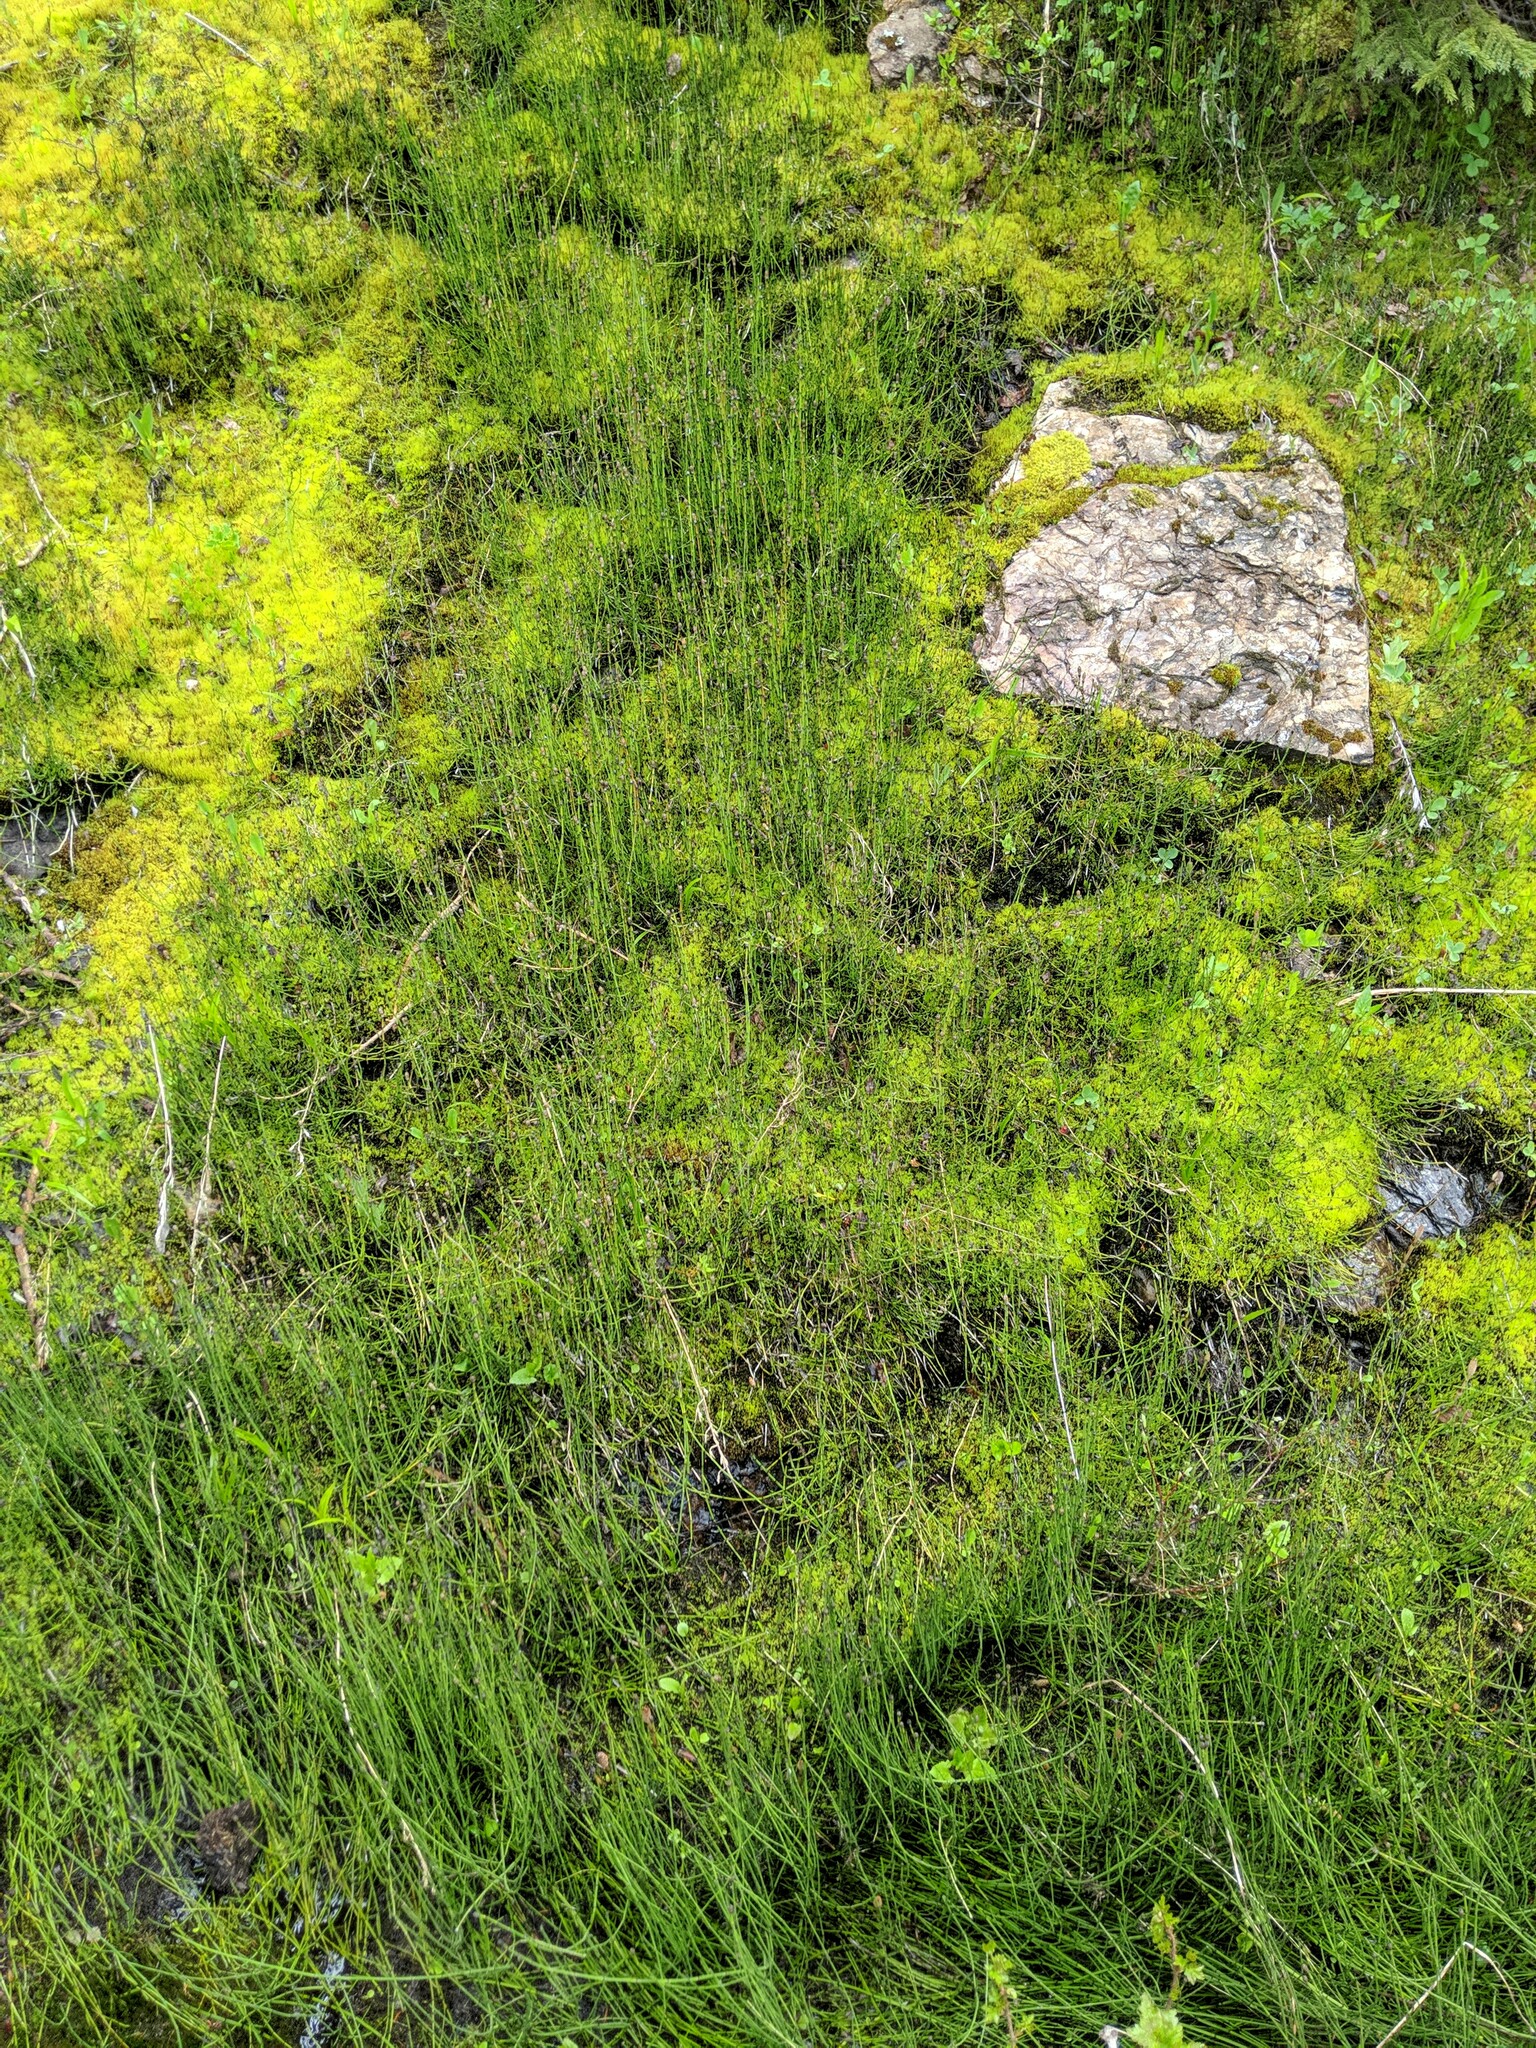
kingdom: Plantae
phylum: Tracheophyta
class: Polypodiopsida
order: Equisetales
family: Equisetaceae
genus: Equisetum
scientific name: Equisetum variegatum
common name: Variegated horsetail
